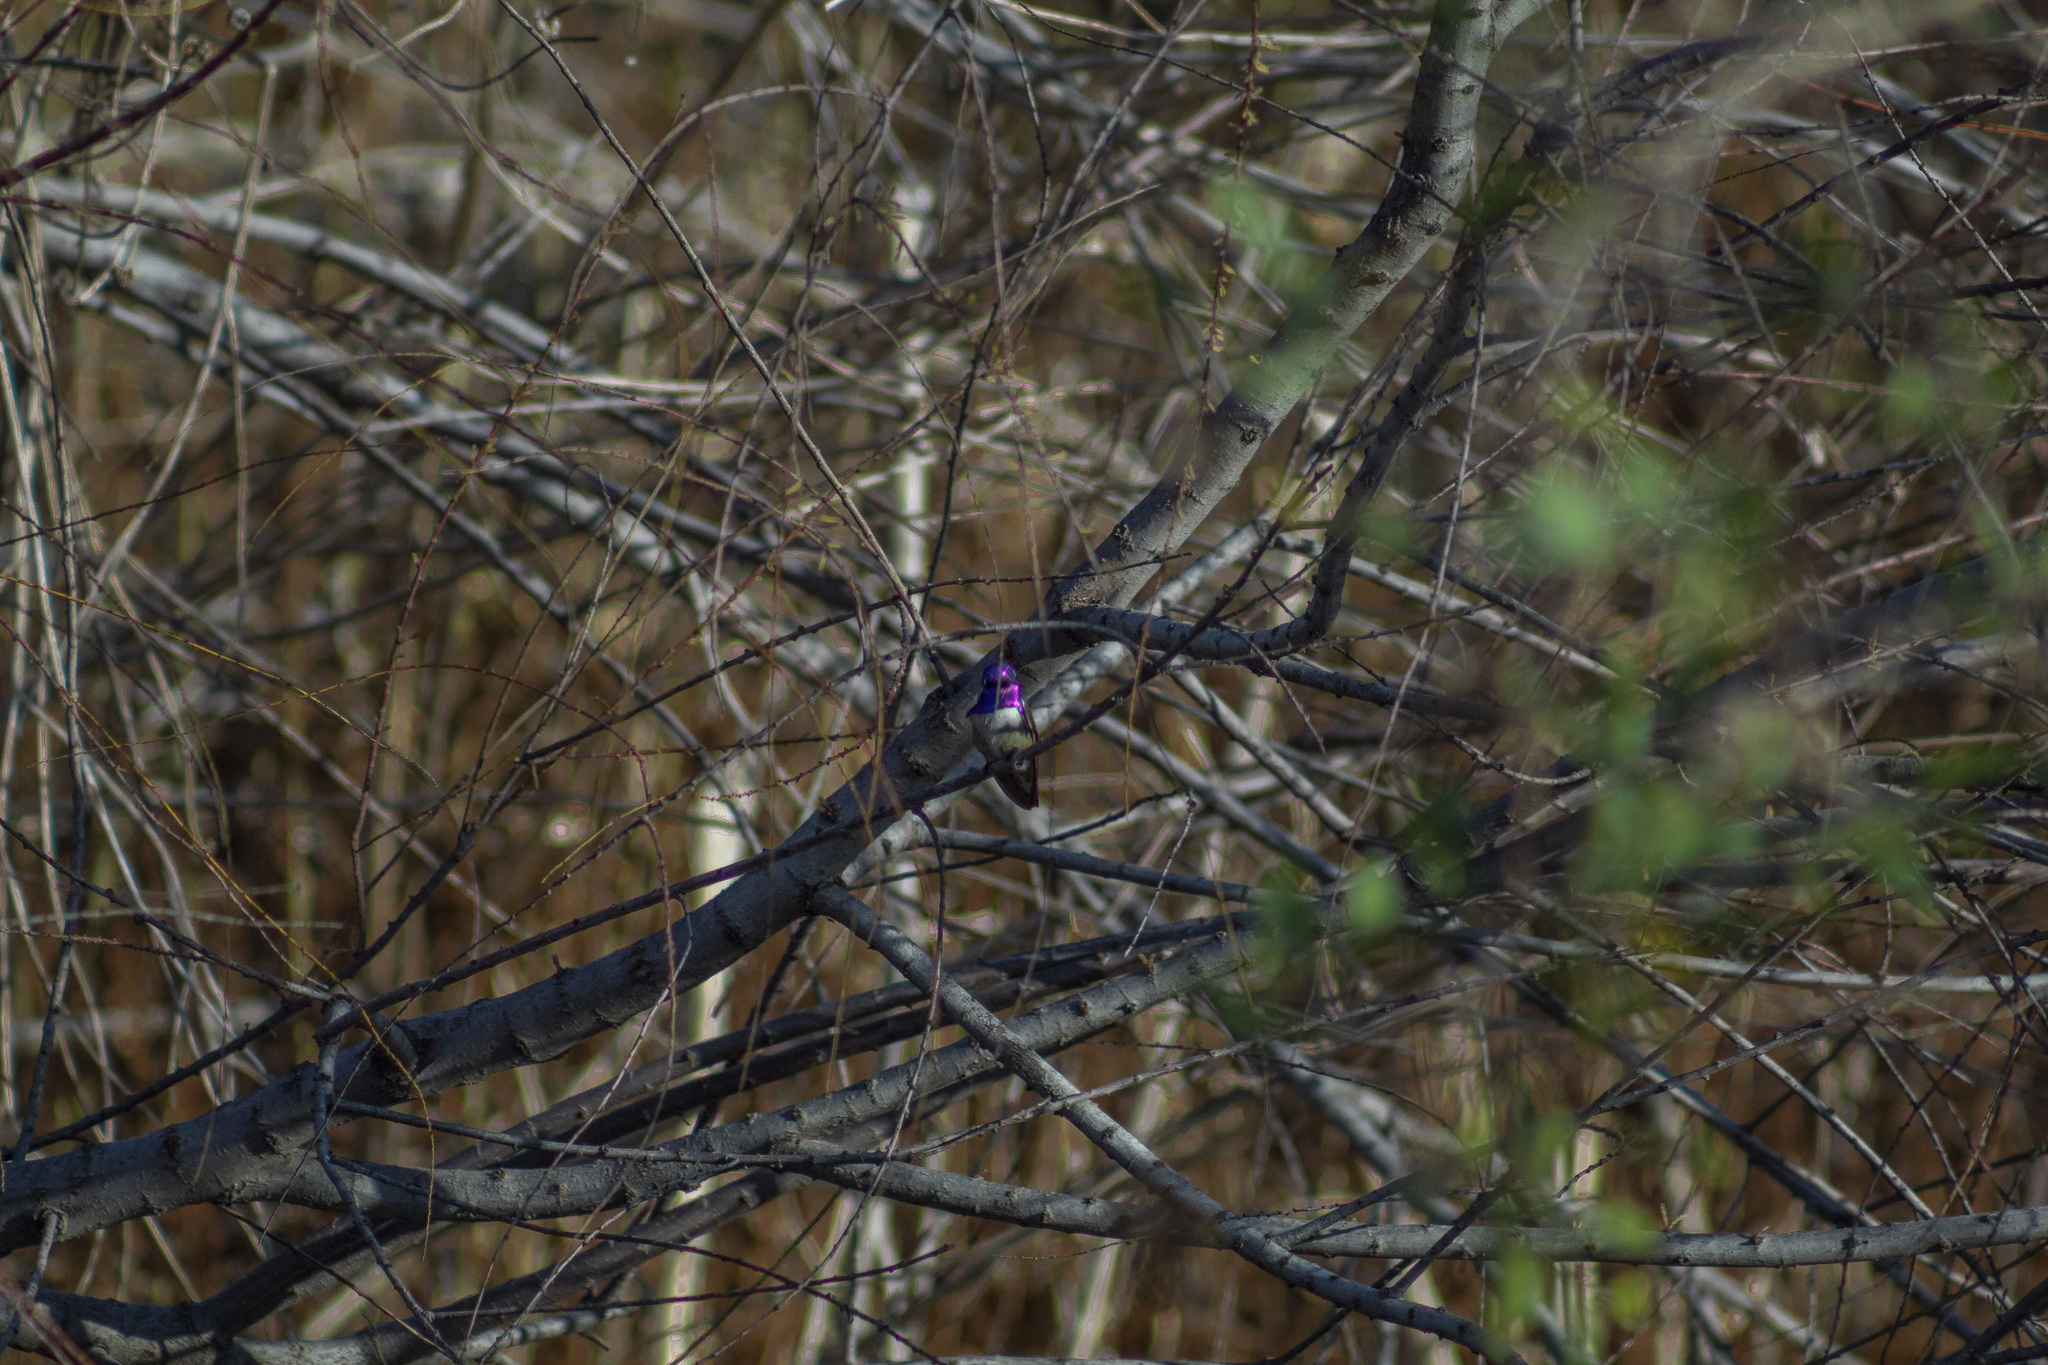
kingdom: Animalia
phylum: Chordata
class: Aves
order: Apodiformes
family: Trochilidae
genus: Calypte
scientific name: Calypte costae
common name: Costa's hummingbird
